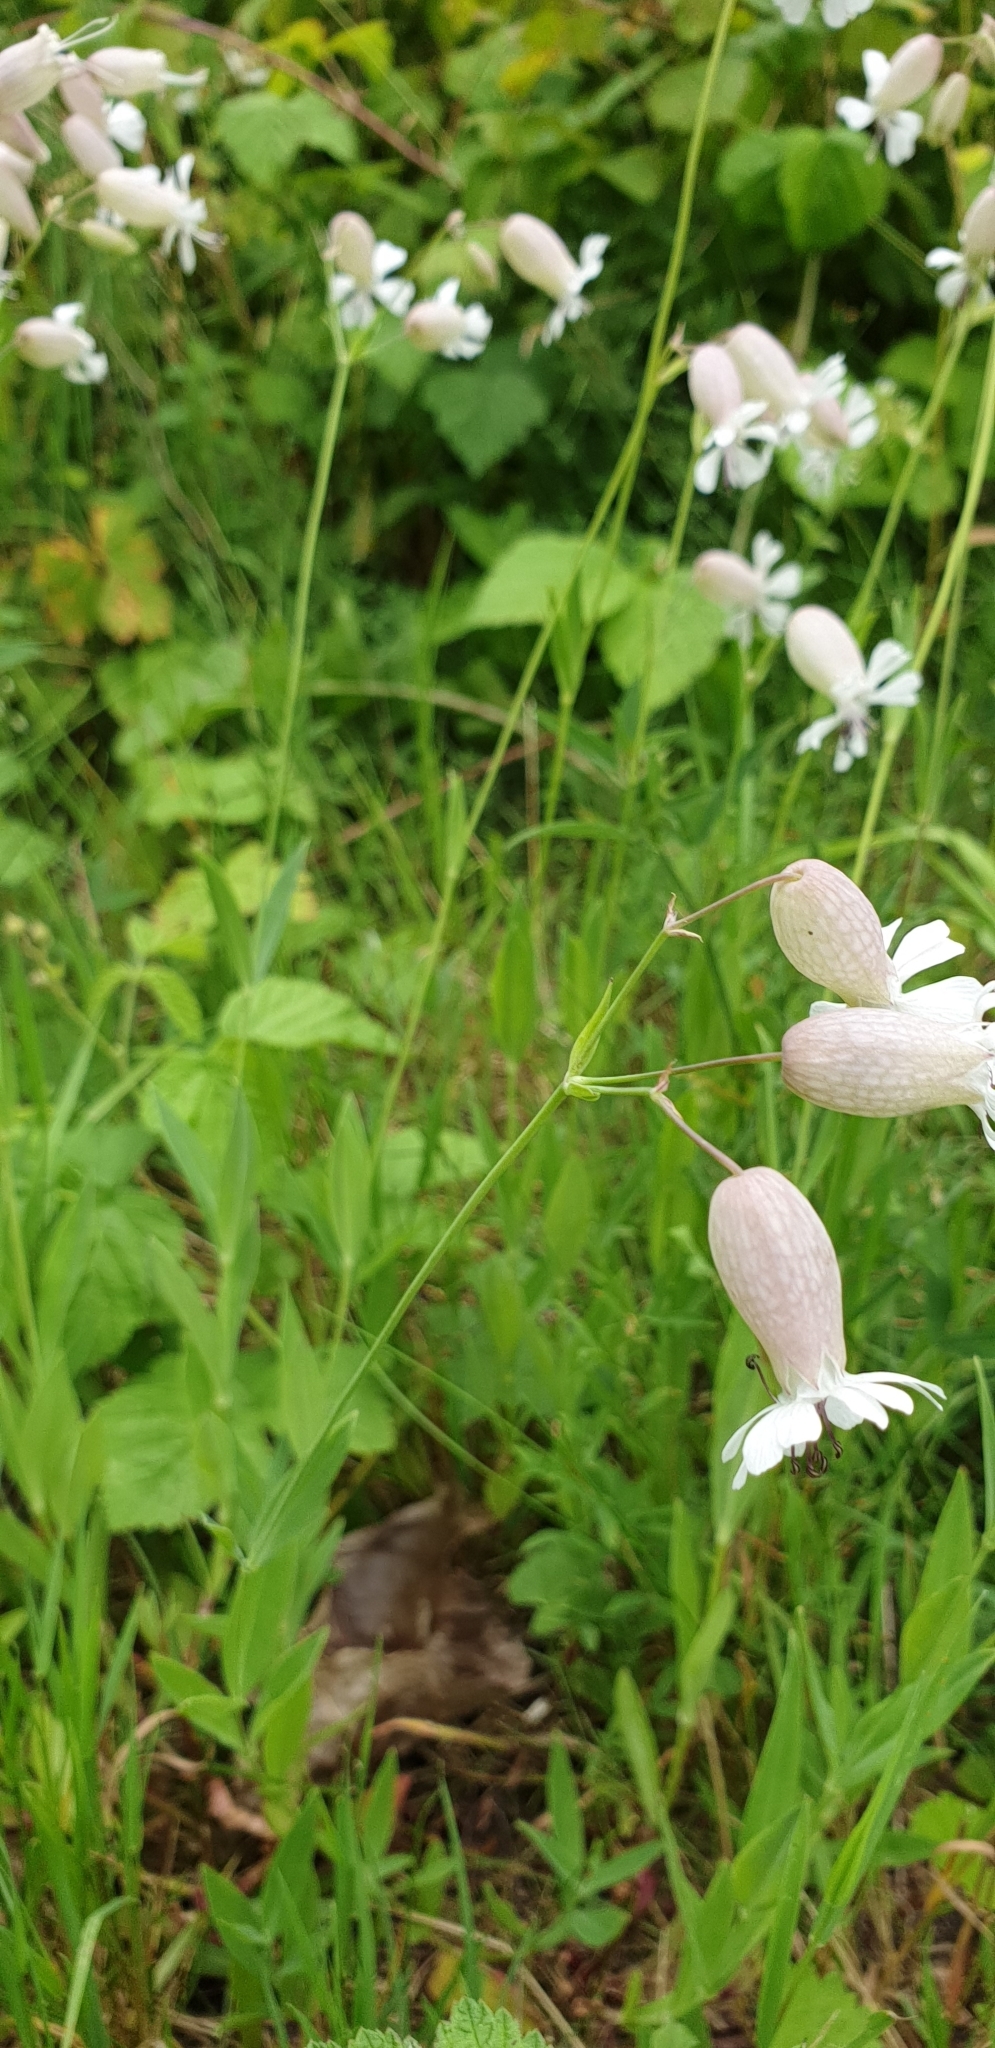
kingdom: Plantae
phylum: Tracheophyta
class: Magnoliopsida
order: Caryophyllales
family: Caryophyllaceae
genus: Silene
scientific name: Silene vulgaris
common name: Bladder campion
